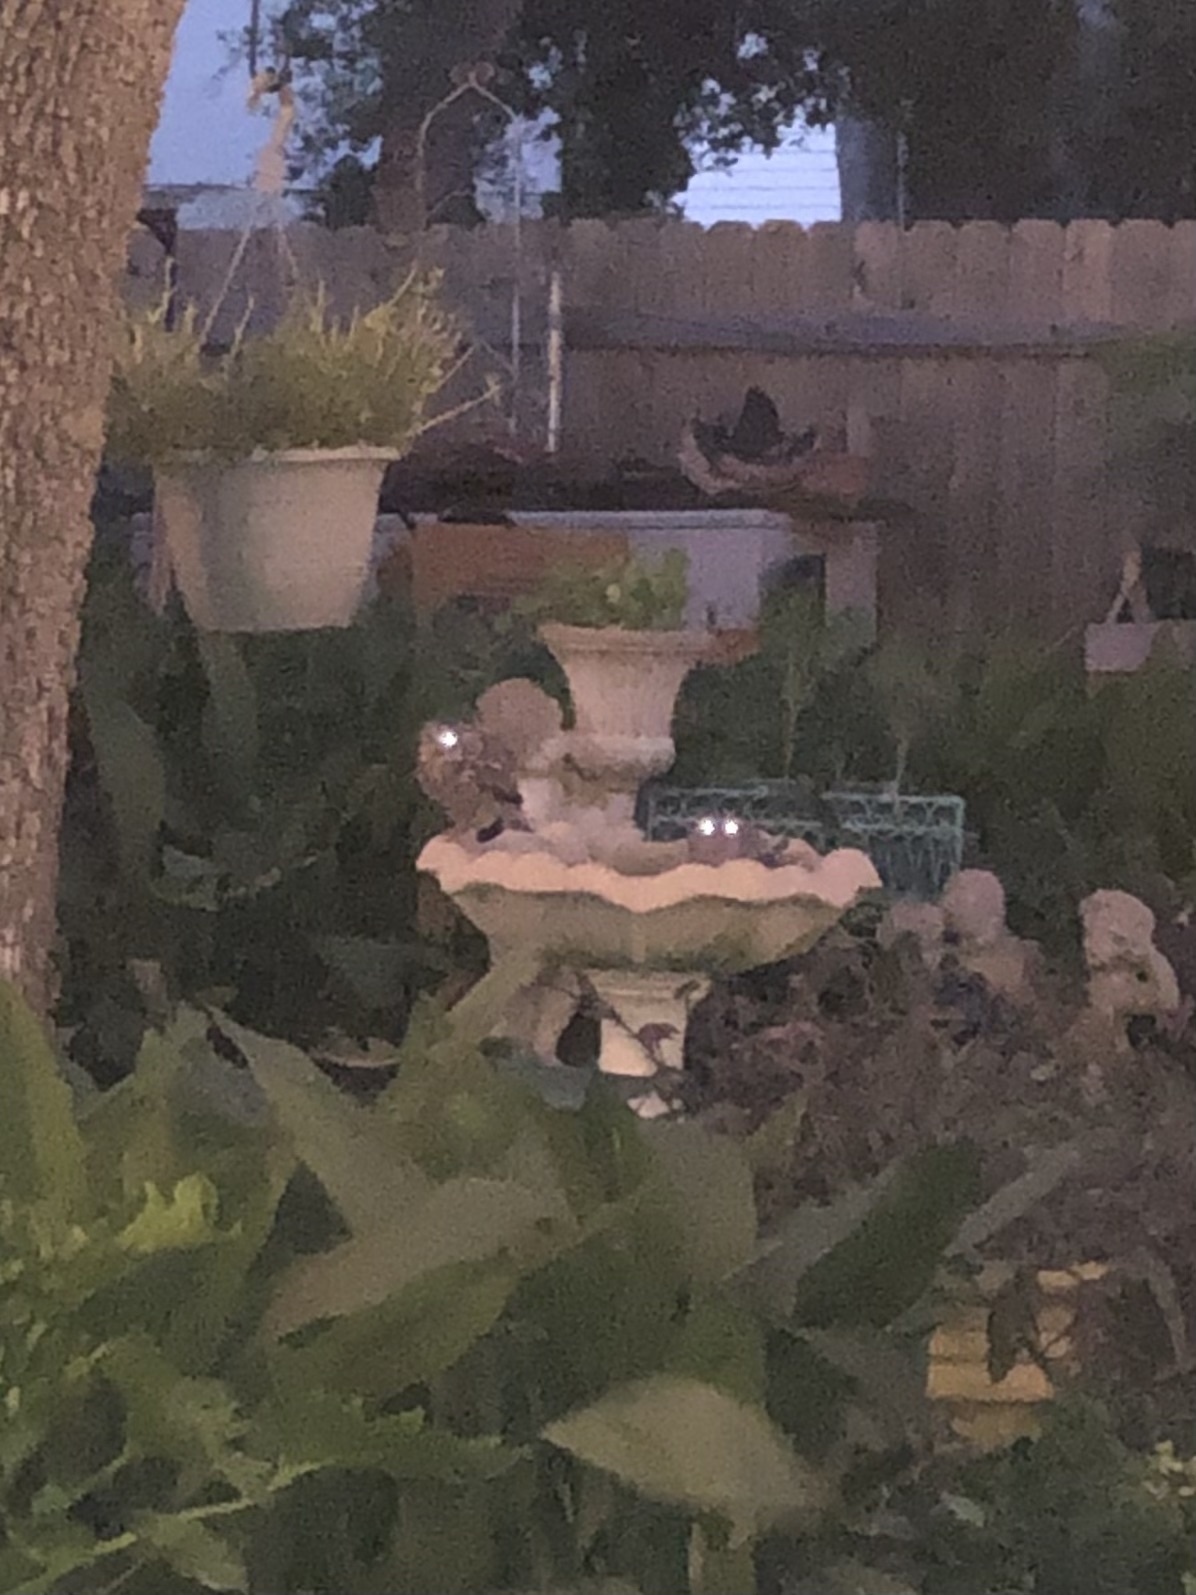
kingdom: Animalia
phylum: Chordata
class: Aves
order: Strigiformes
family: Strigidae
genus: Megascops
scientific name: Megascops asio
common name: Eastern screech-owl
